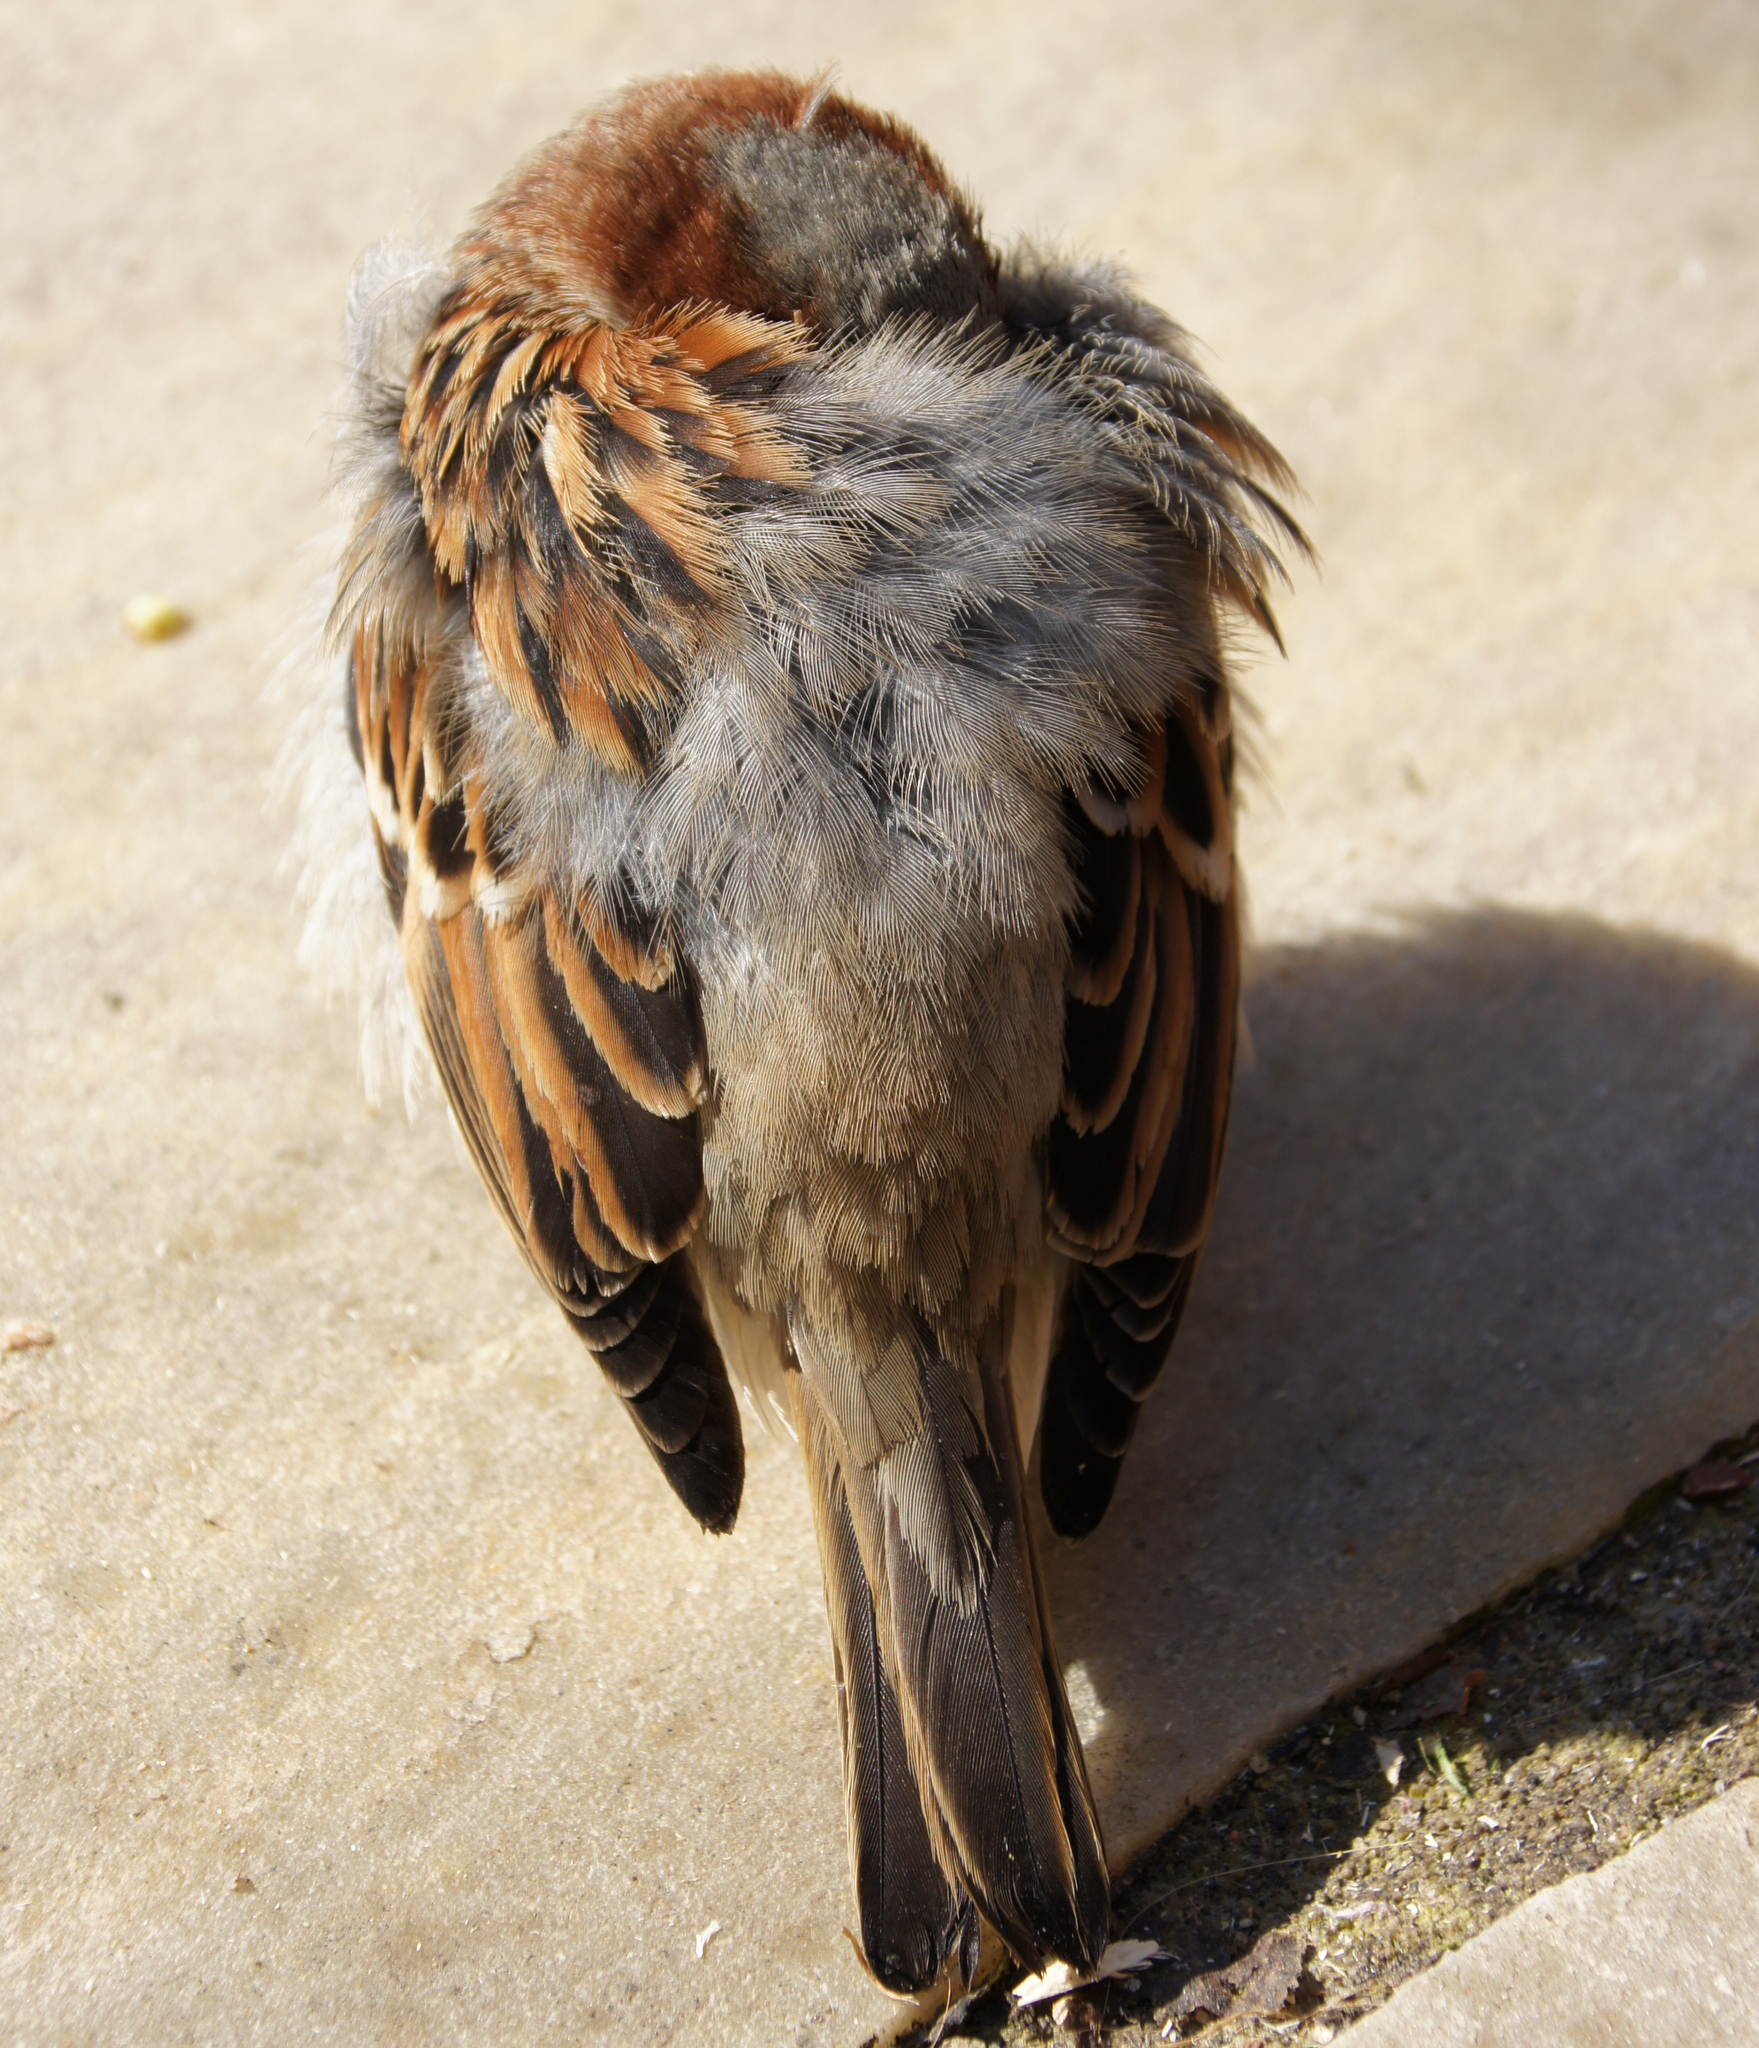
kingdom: Animalia
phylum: Chordata
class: Aves
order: Passeriformes
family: Passeridae
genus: Passer
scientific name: Passer domesticus
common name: House sparrow
